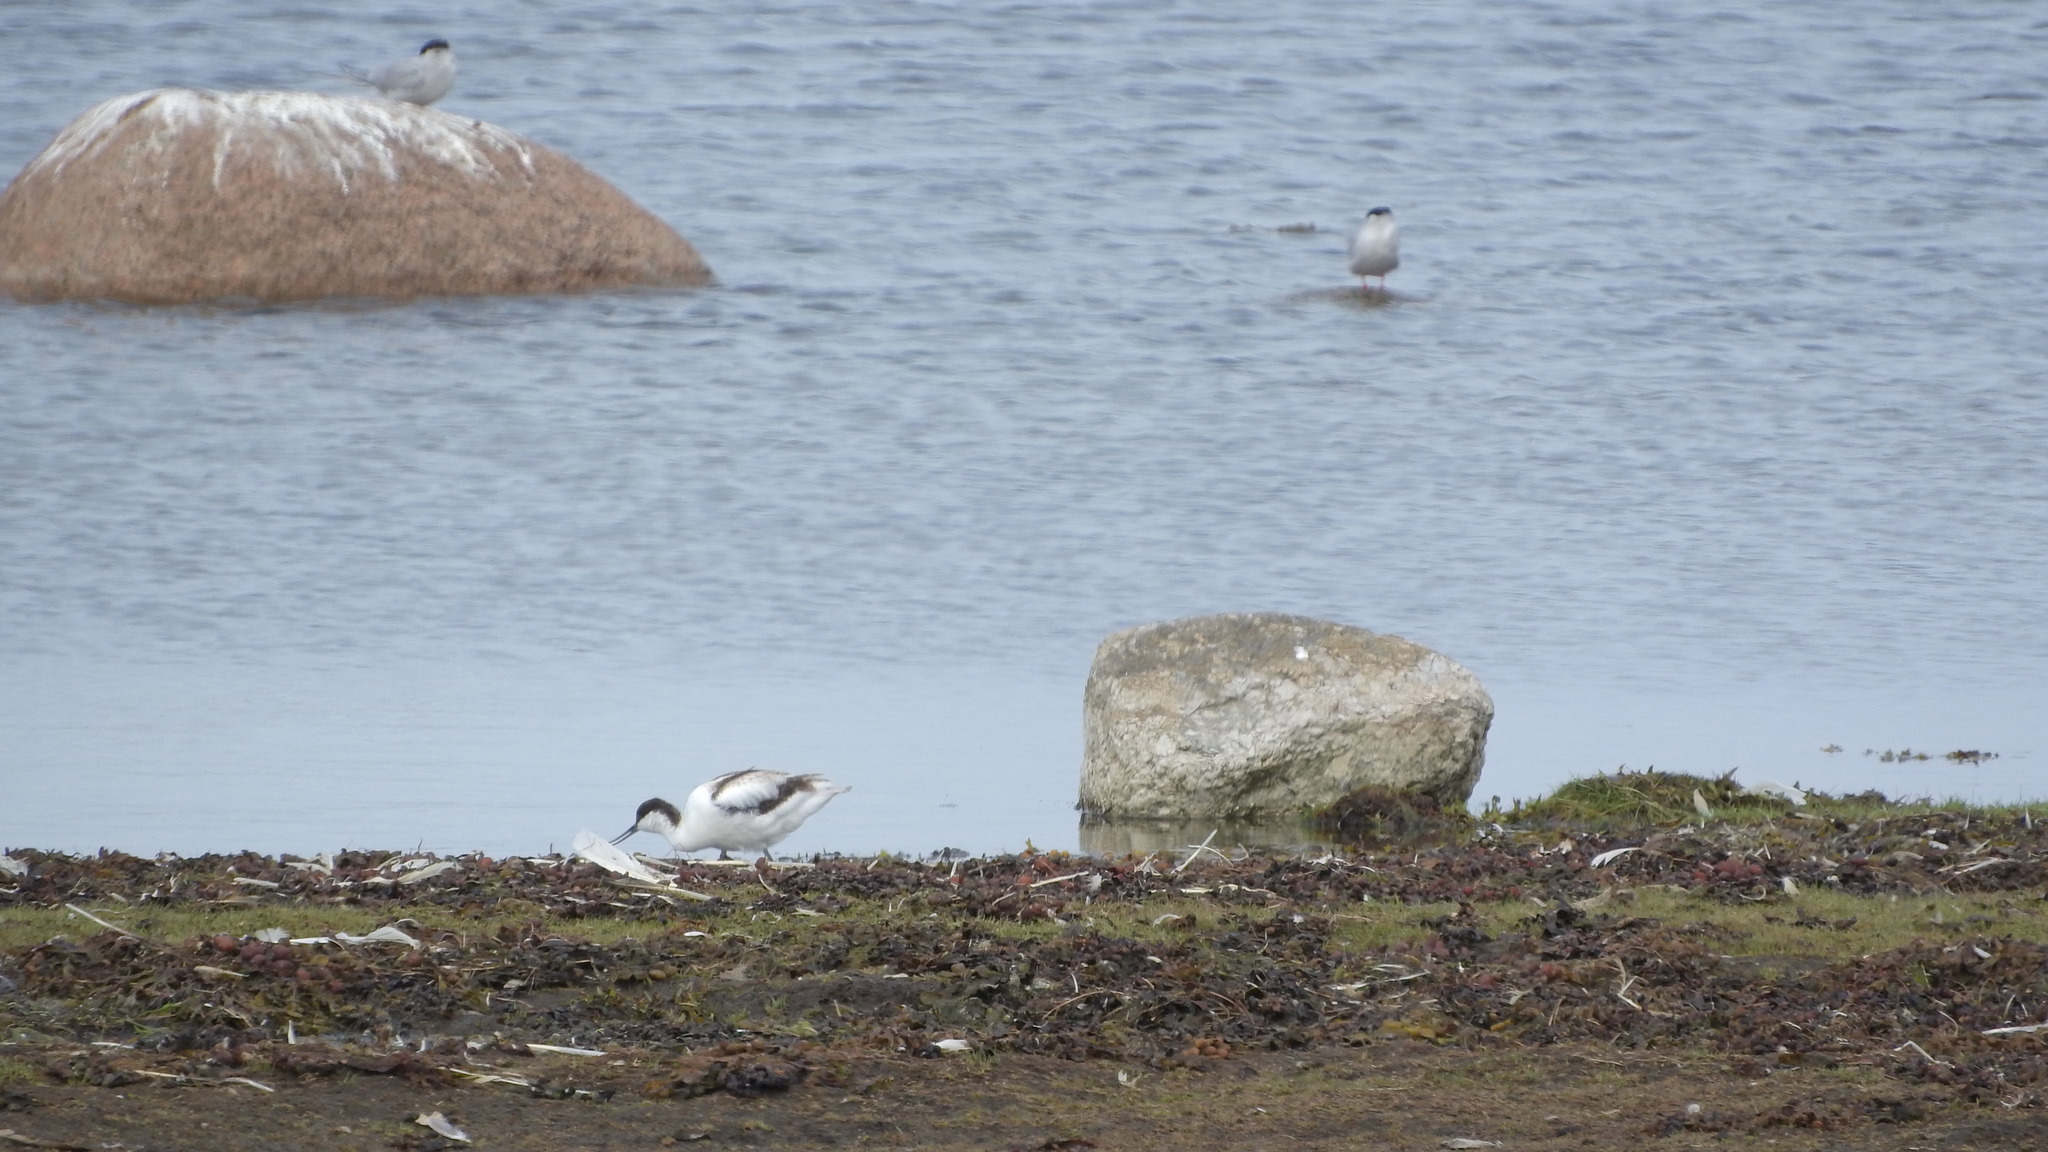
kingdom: Animalia
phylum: Chordata
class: Aves
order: Charadriiformes
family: Recurvirostridae
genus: Recurvirostra
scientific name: Recurvirostra avosetta
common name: Pied avocet
